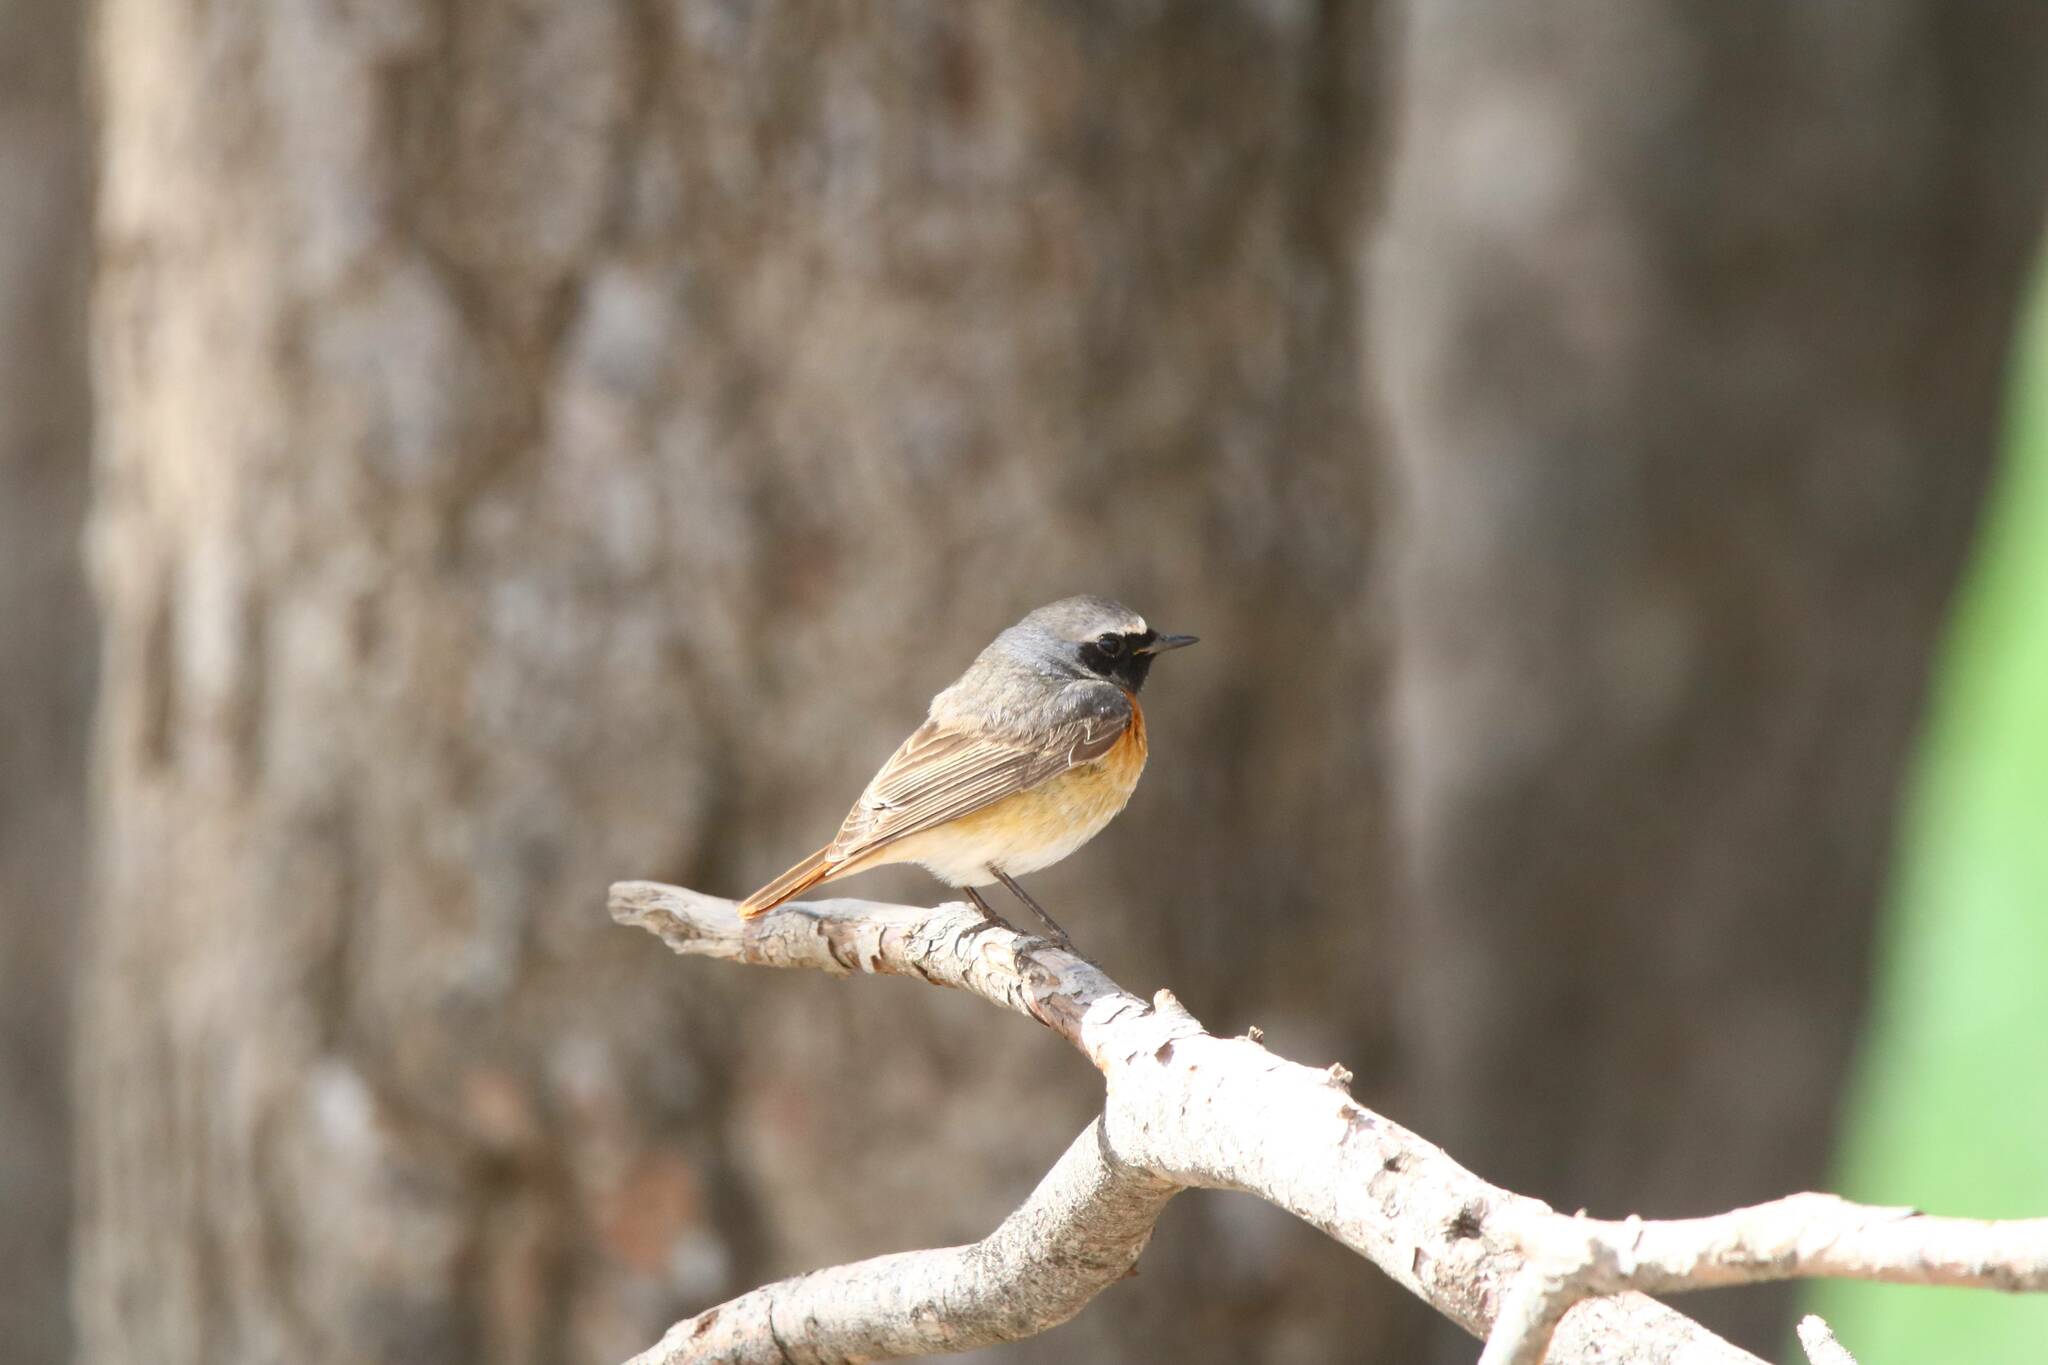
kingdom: Animalia
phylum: Chordata
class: Aves
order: Passeriformes
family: Muscicapidae
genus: Phoenicurus
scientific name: Phoenicurus phoenicurus
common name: Common redstart
